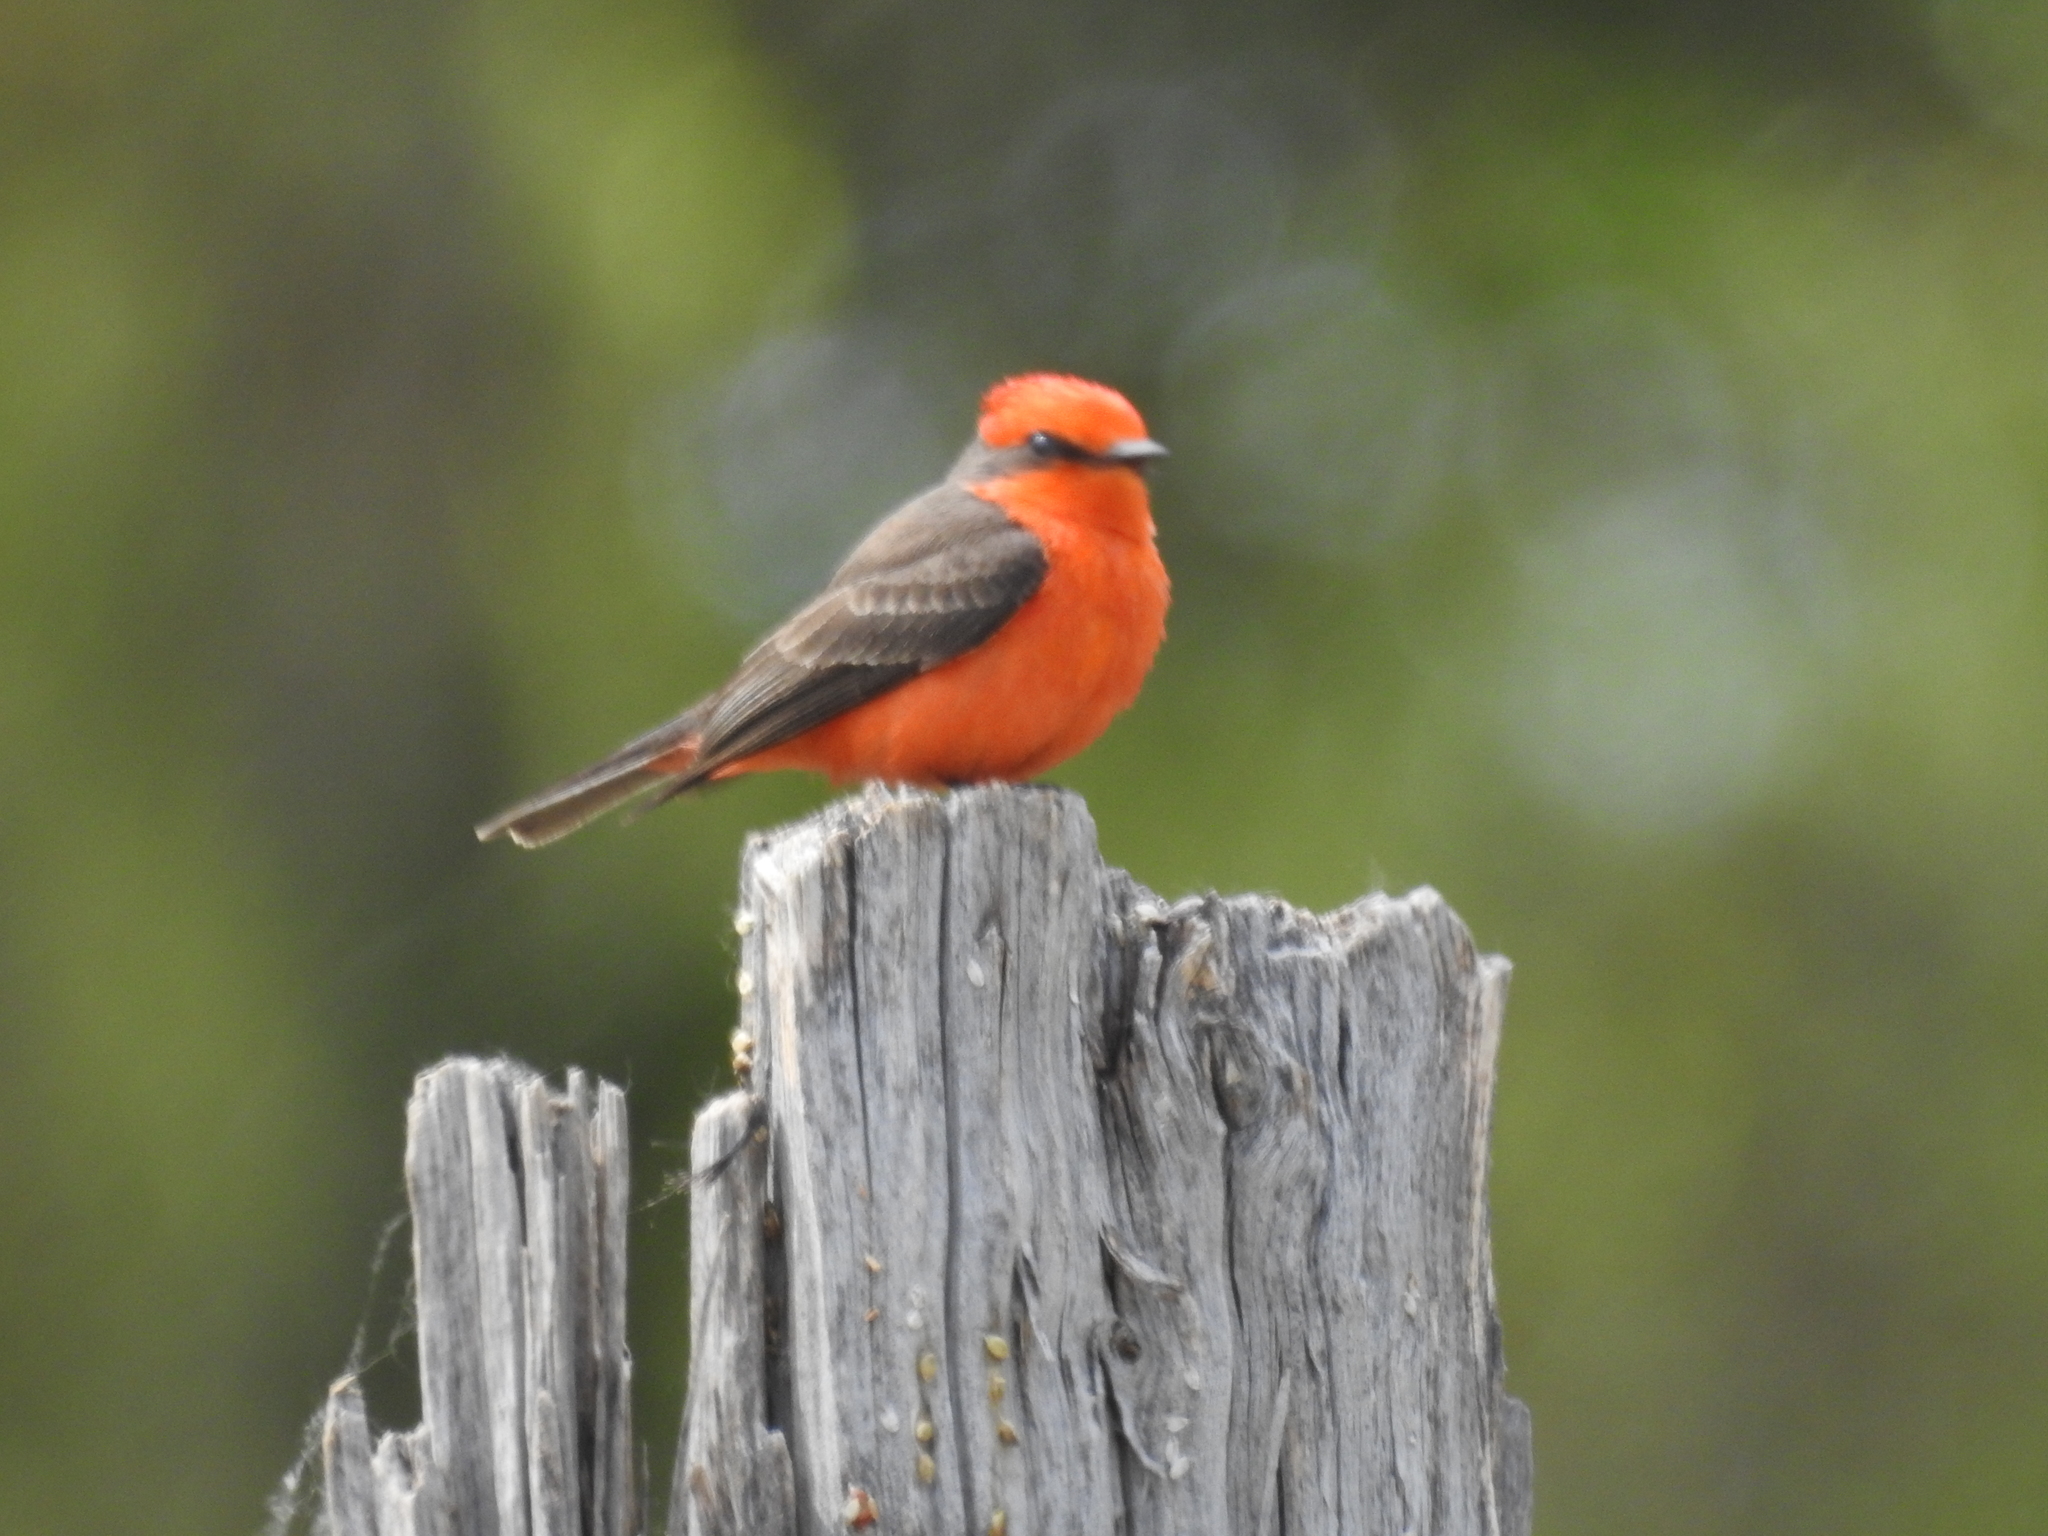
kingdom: Animalia
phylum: Chordata
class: Aves
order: Passeriformes
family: Tyrannidae
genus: Pyrocephalus
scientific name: Pyrocephalus rubinus
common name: Vermilion flycatcher
